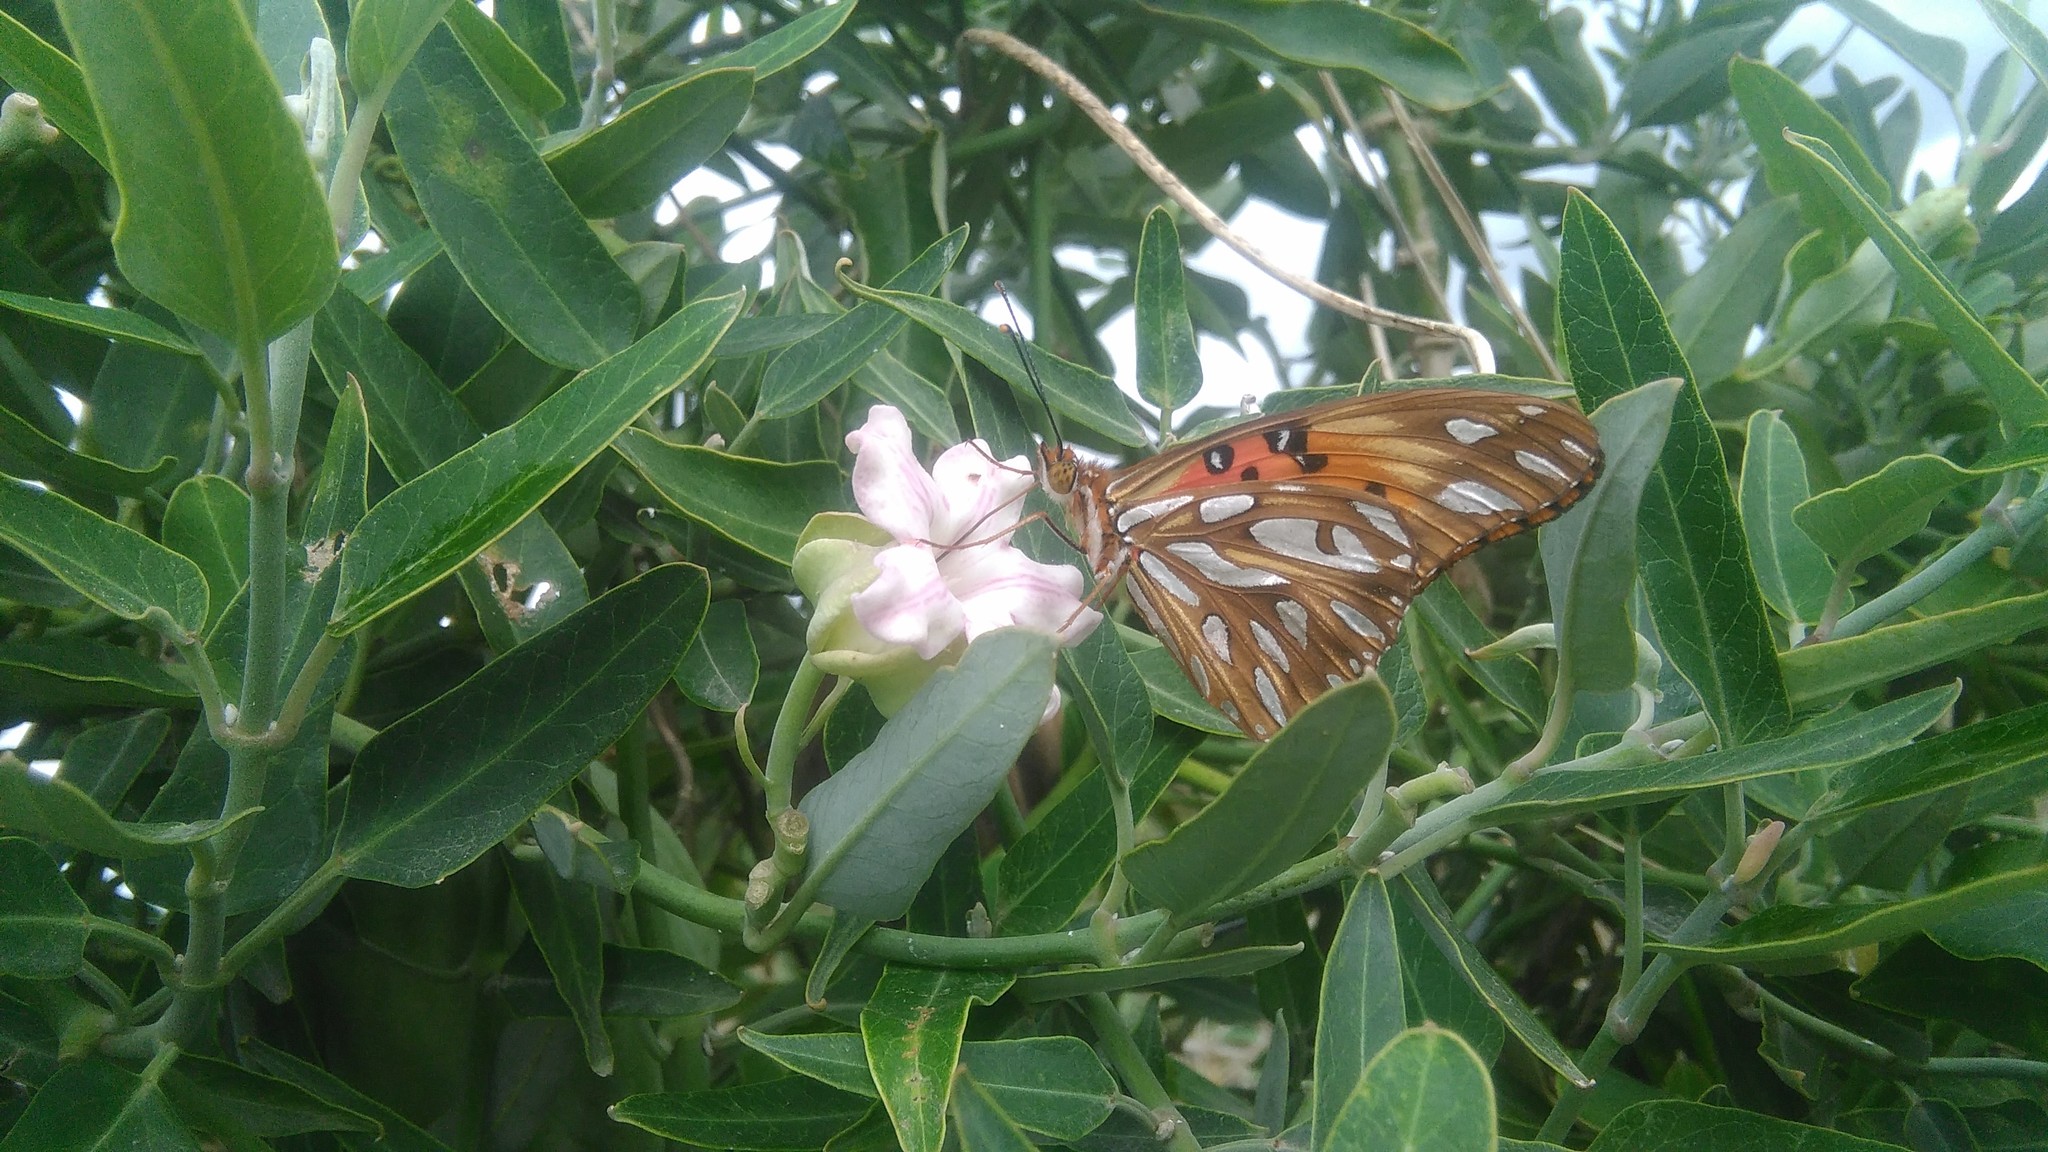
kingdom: Animalia
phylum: Arthropoda
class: Insecta
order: Lepidoptera
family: Nymphalidae
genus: Dione
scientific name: Dione vanillae
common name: Gulf fritillary
